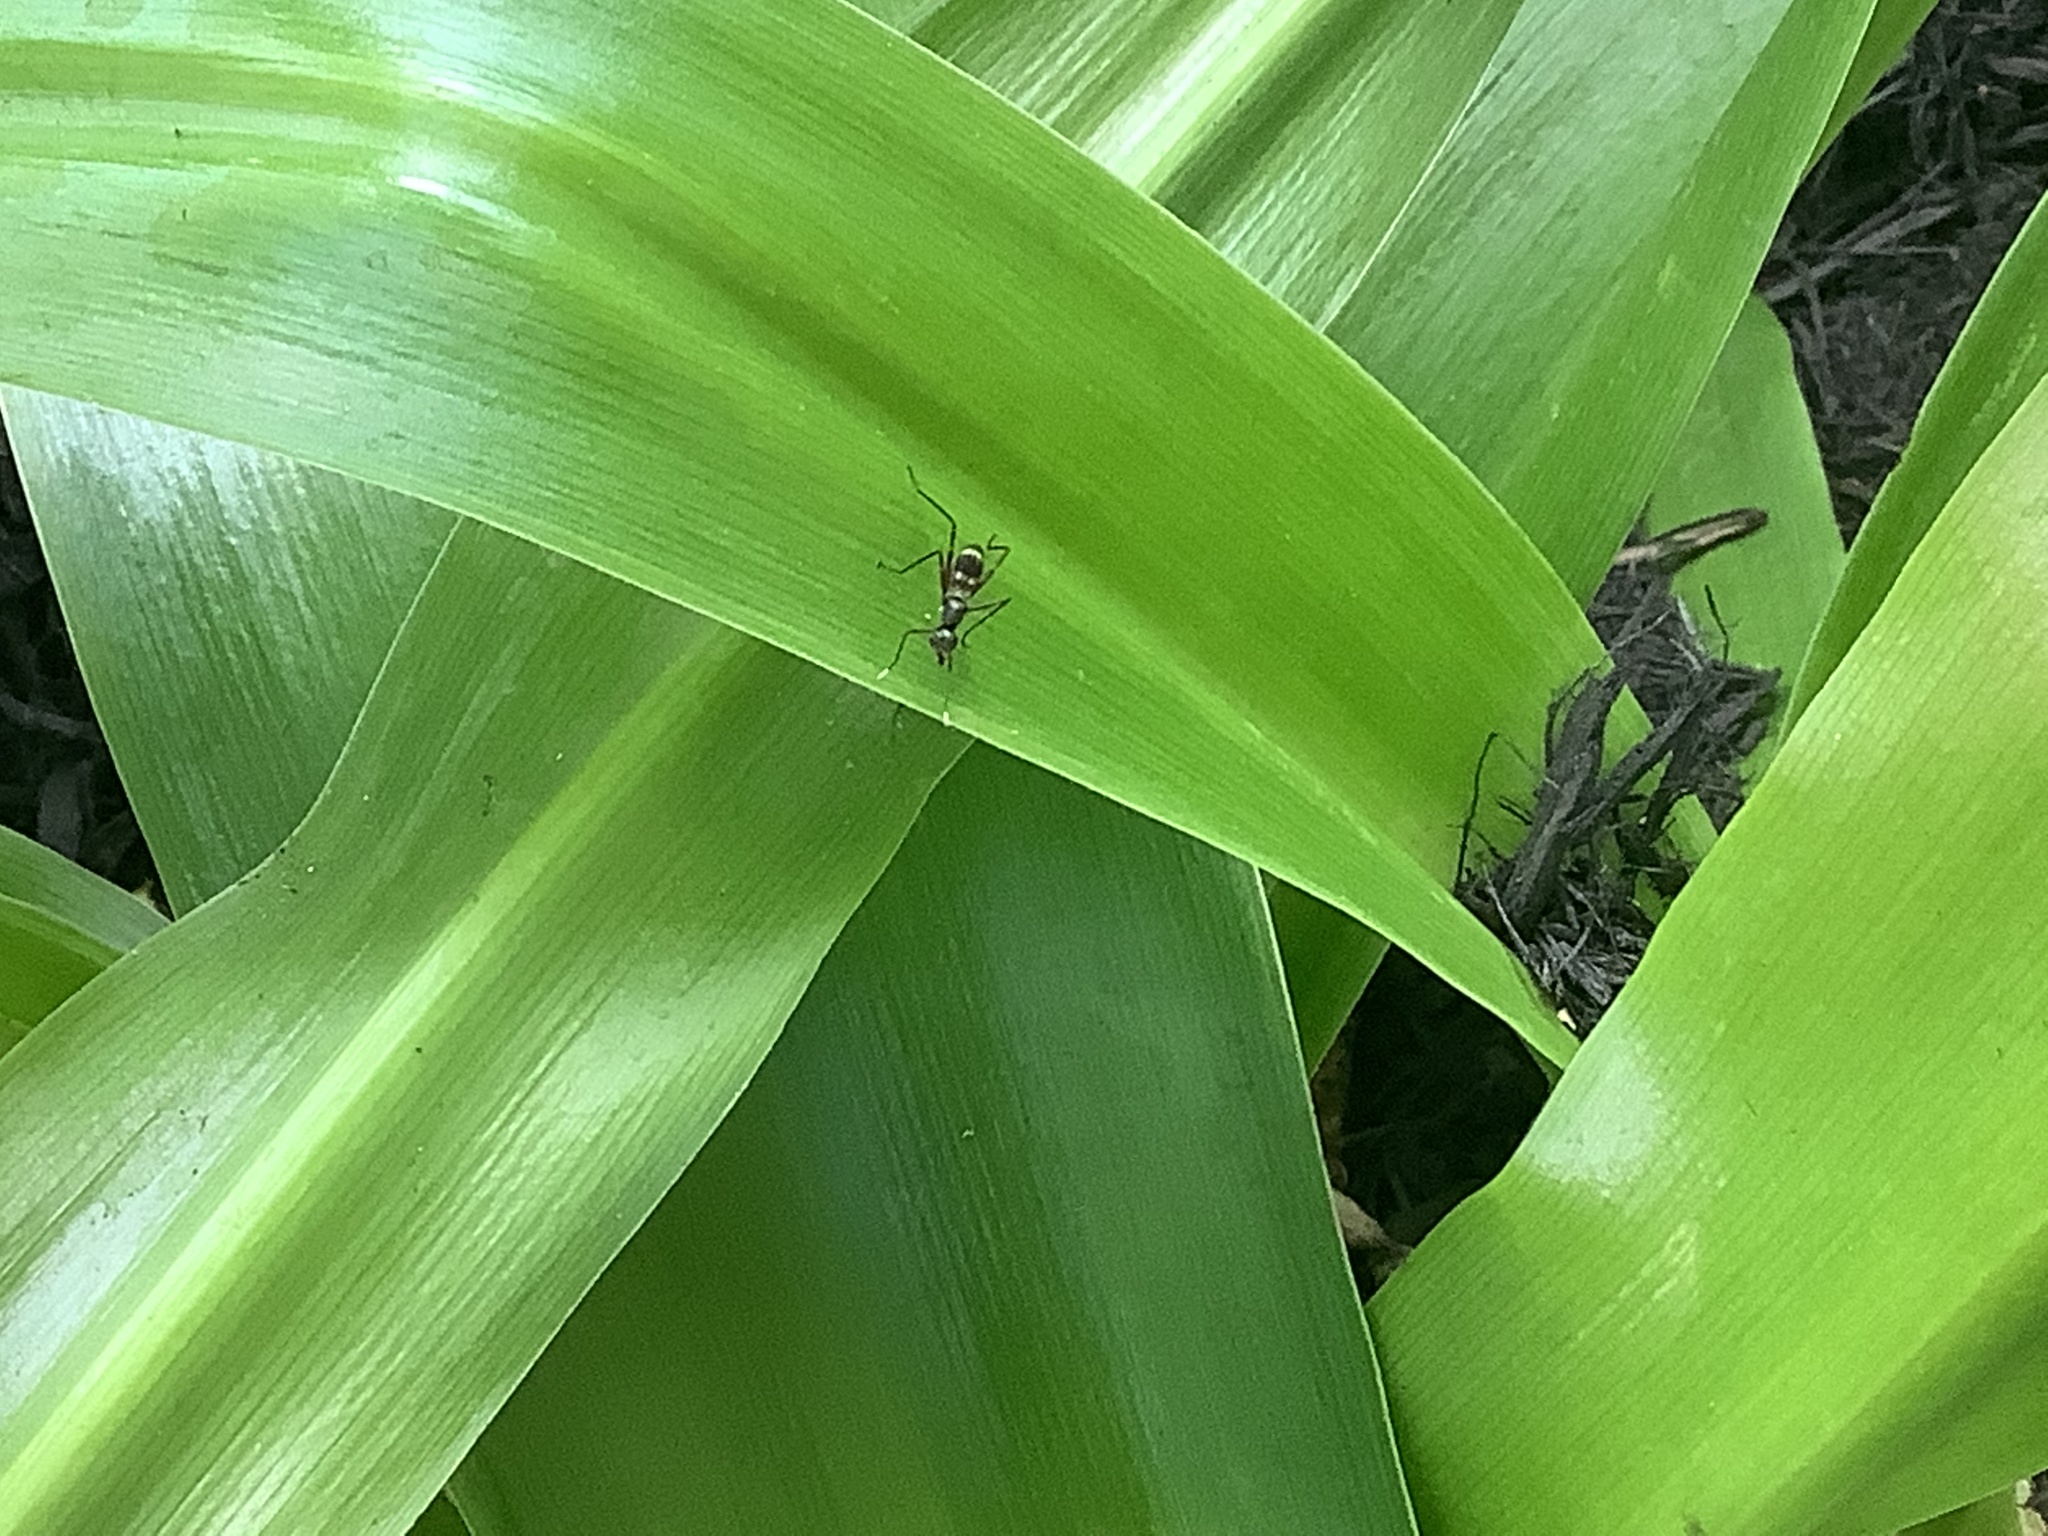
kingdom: Animalia
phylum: Arthropoda
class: Insecta
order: Diptera
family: Micropezidae
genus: Taeniaptera
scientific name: Taeniaptera trivittata
